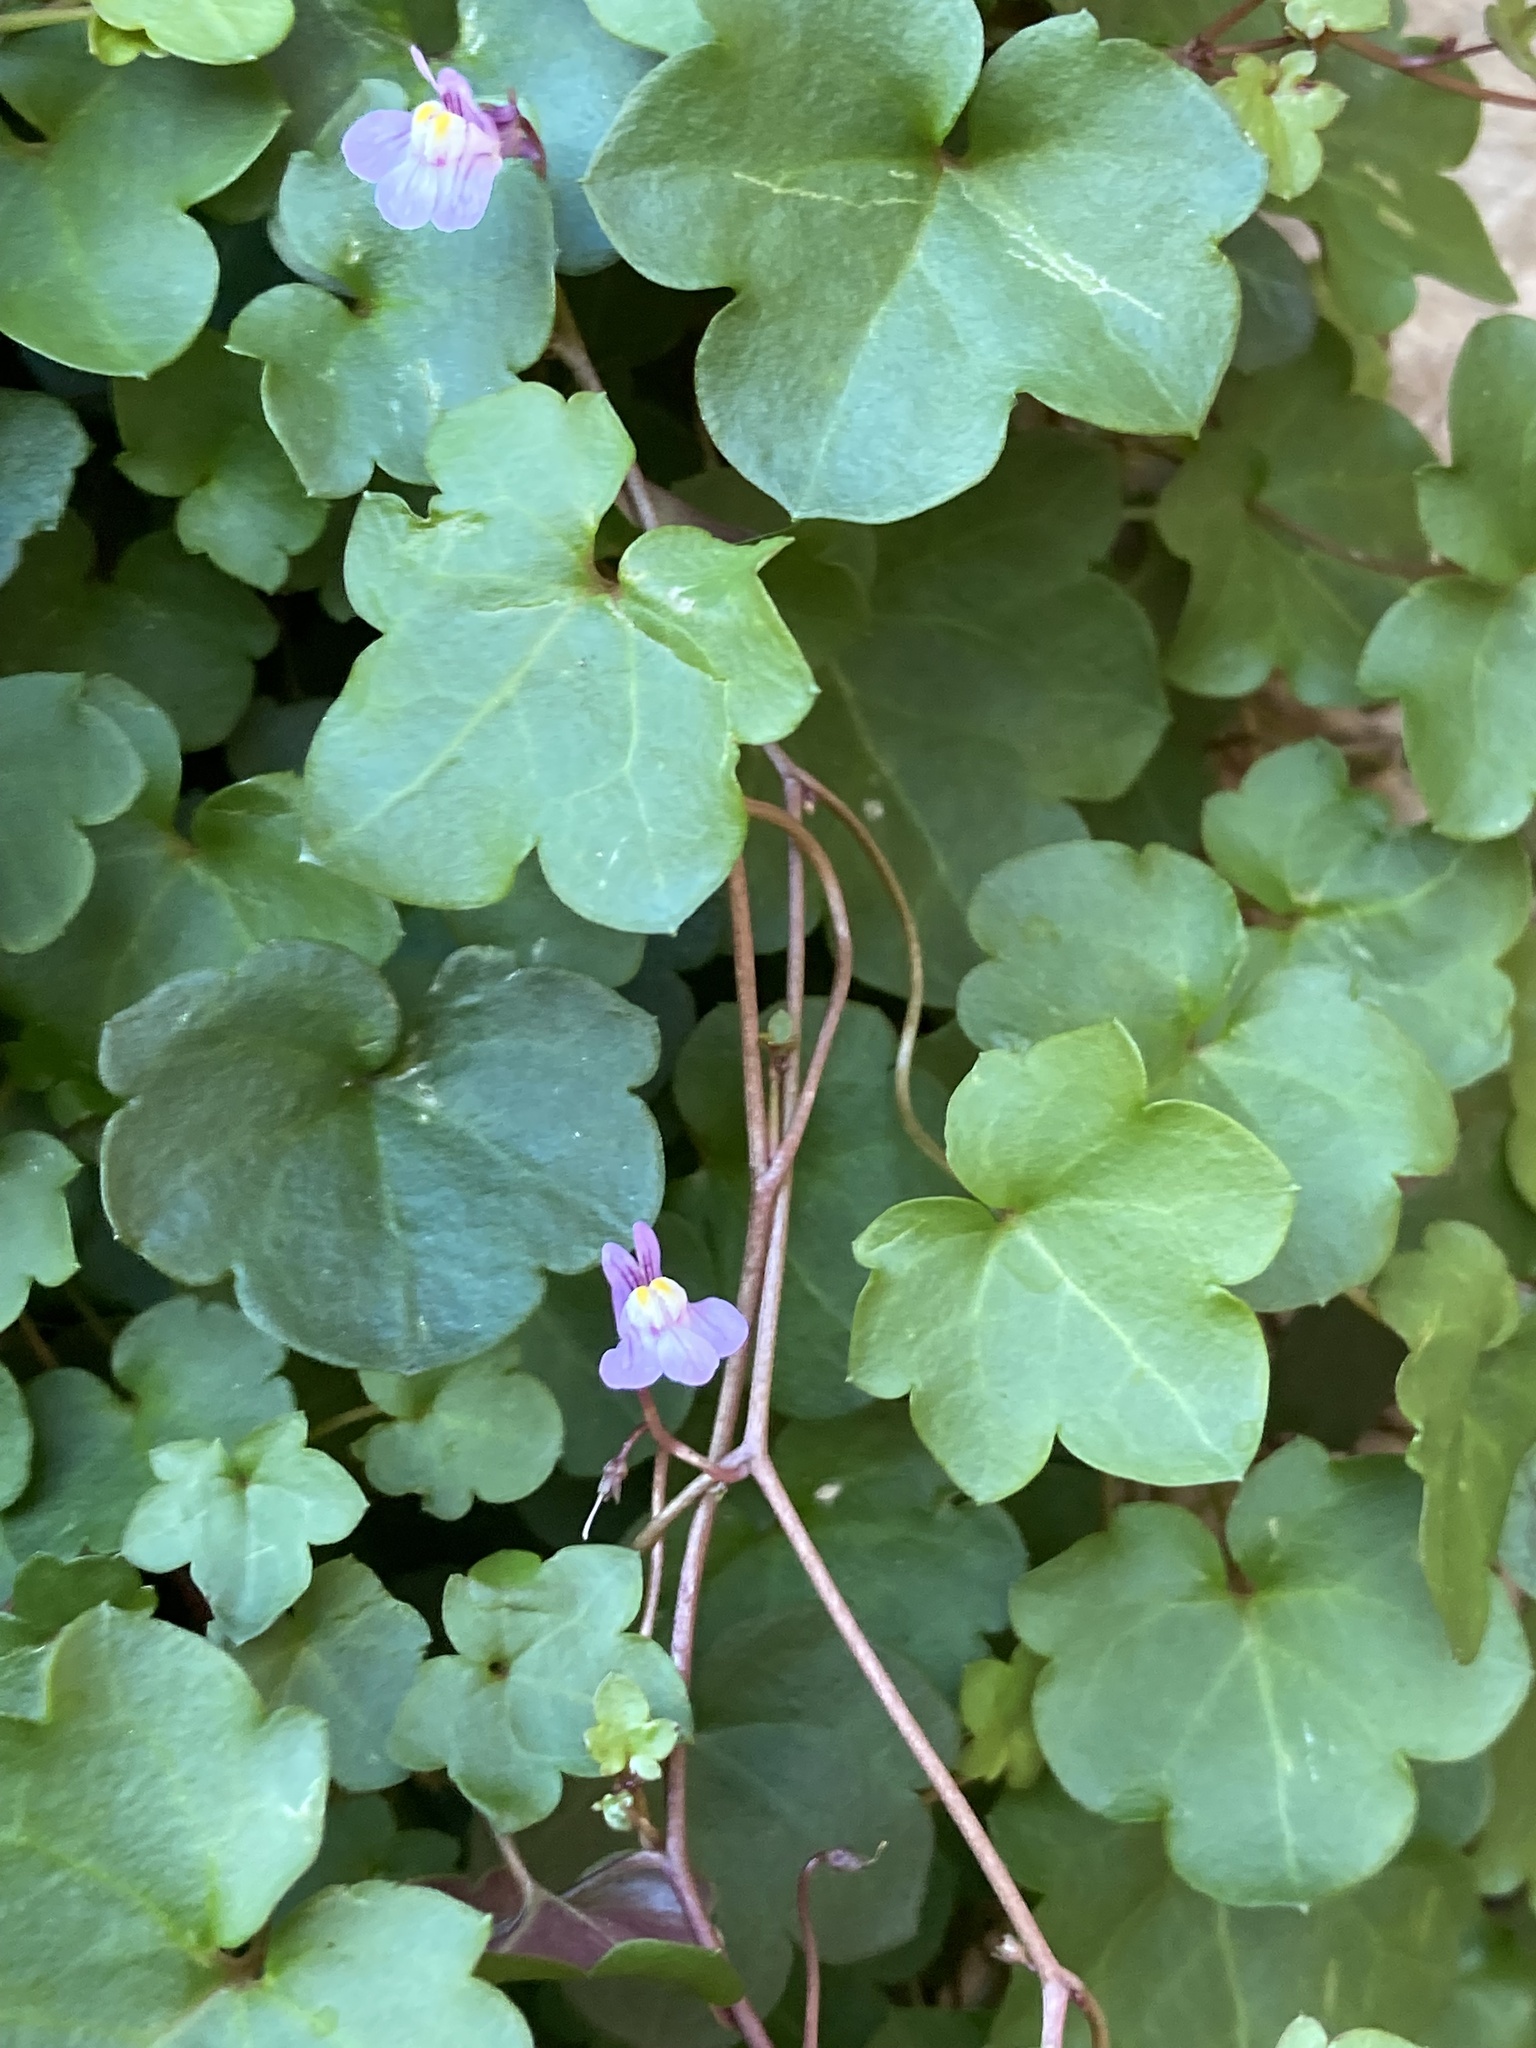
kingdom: Plantae
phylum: Tracheophyta
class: Magnoliopsida
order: Lamiales
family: Plantaginaceae
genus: Cymbalaria
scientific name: Cymbalaria muralis
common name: Ivy-leaved toadflax
